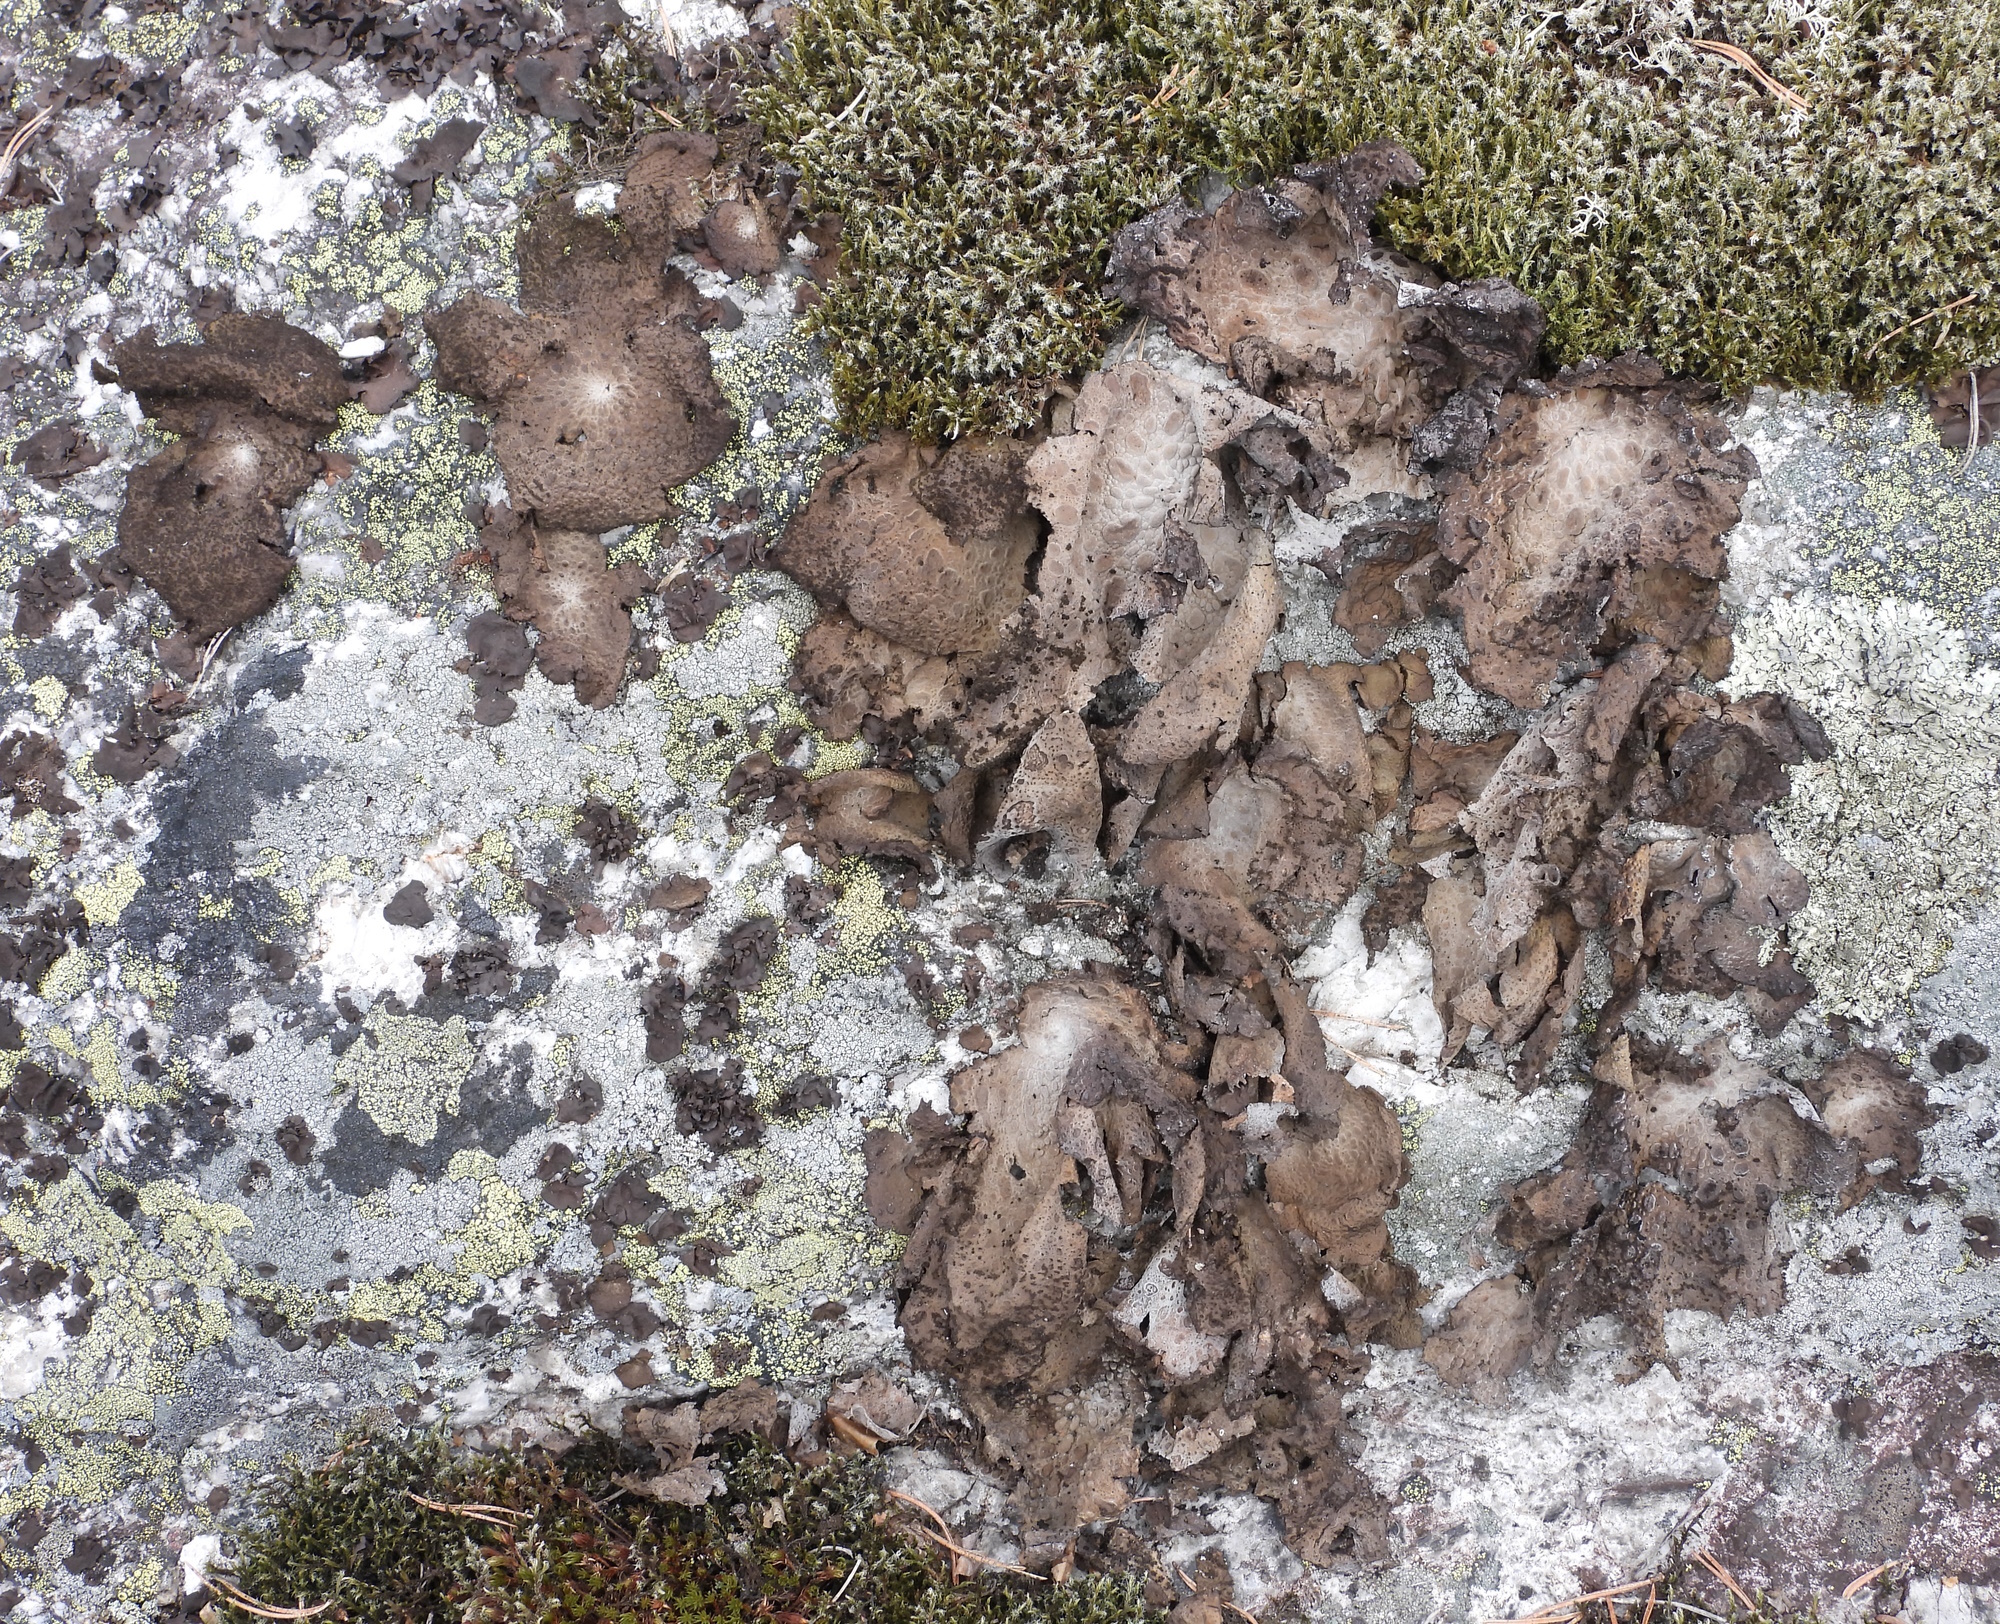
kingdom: Fungi
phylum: Ascomycota
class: Lecanoromycetes
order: Umbilicariales
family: Umbilicariaceae
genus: Lasallia
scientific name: Lasallia pustulata
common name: Blistered toadskin lichen
